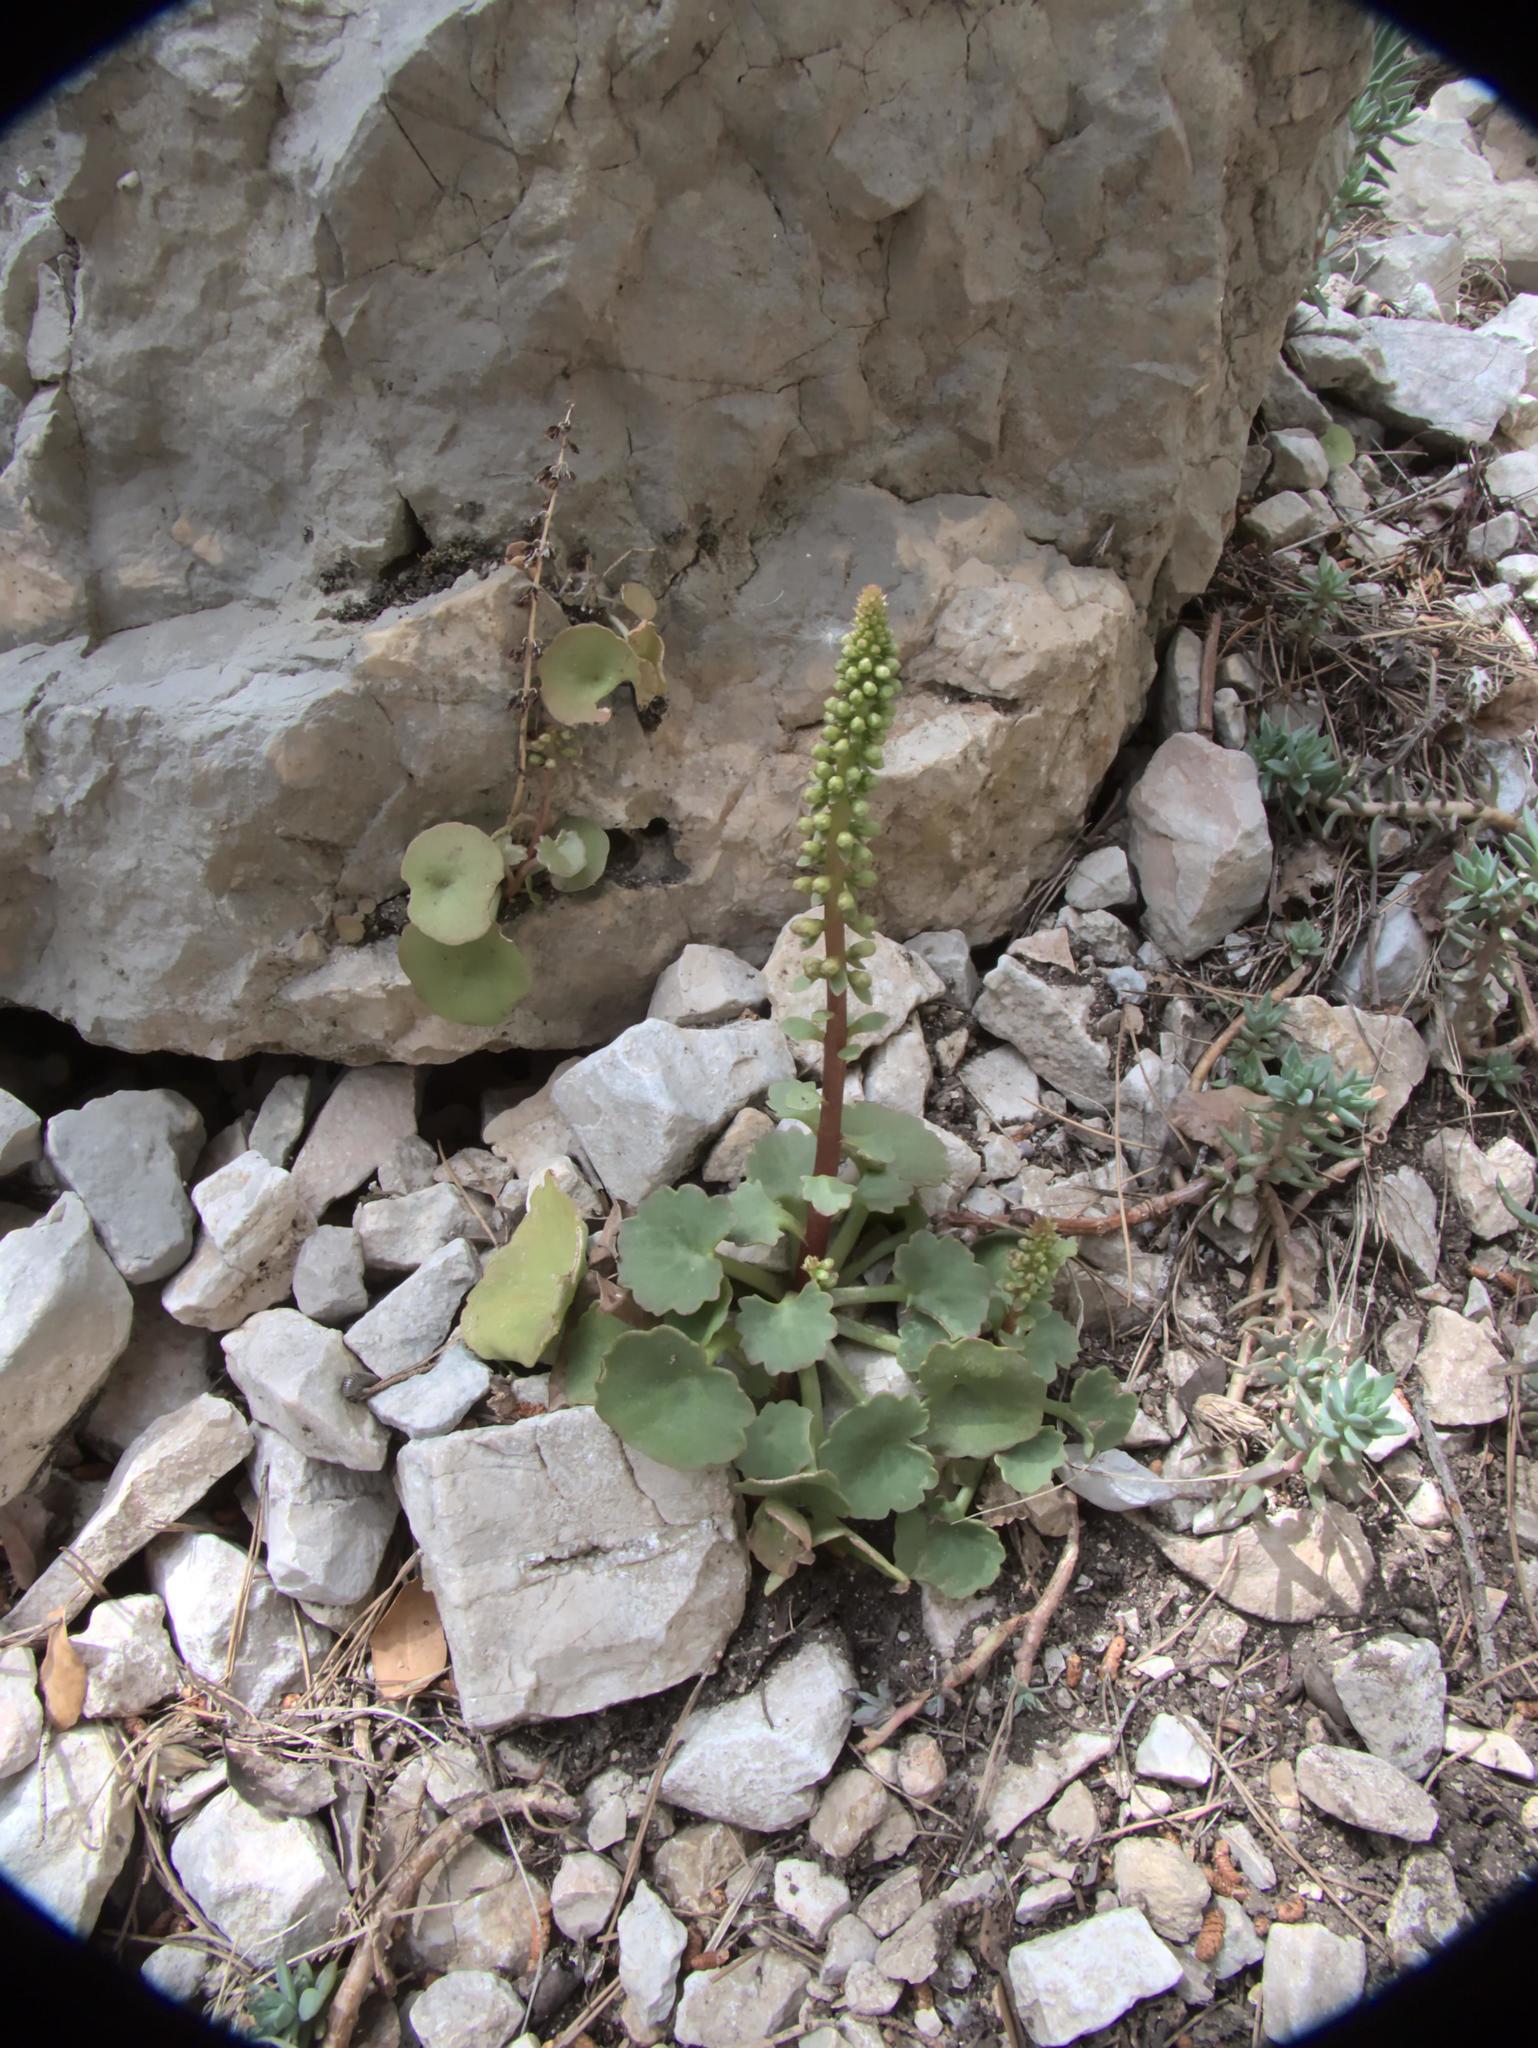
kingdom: Plantae
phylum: Tracheophyta
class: Magnoliopsida
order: Saxifragales
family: Crassulaceae
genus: Umbilicus
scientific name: Umbilicus rupestris
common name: Navelwort
